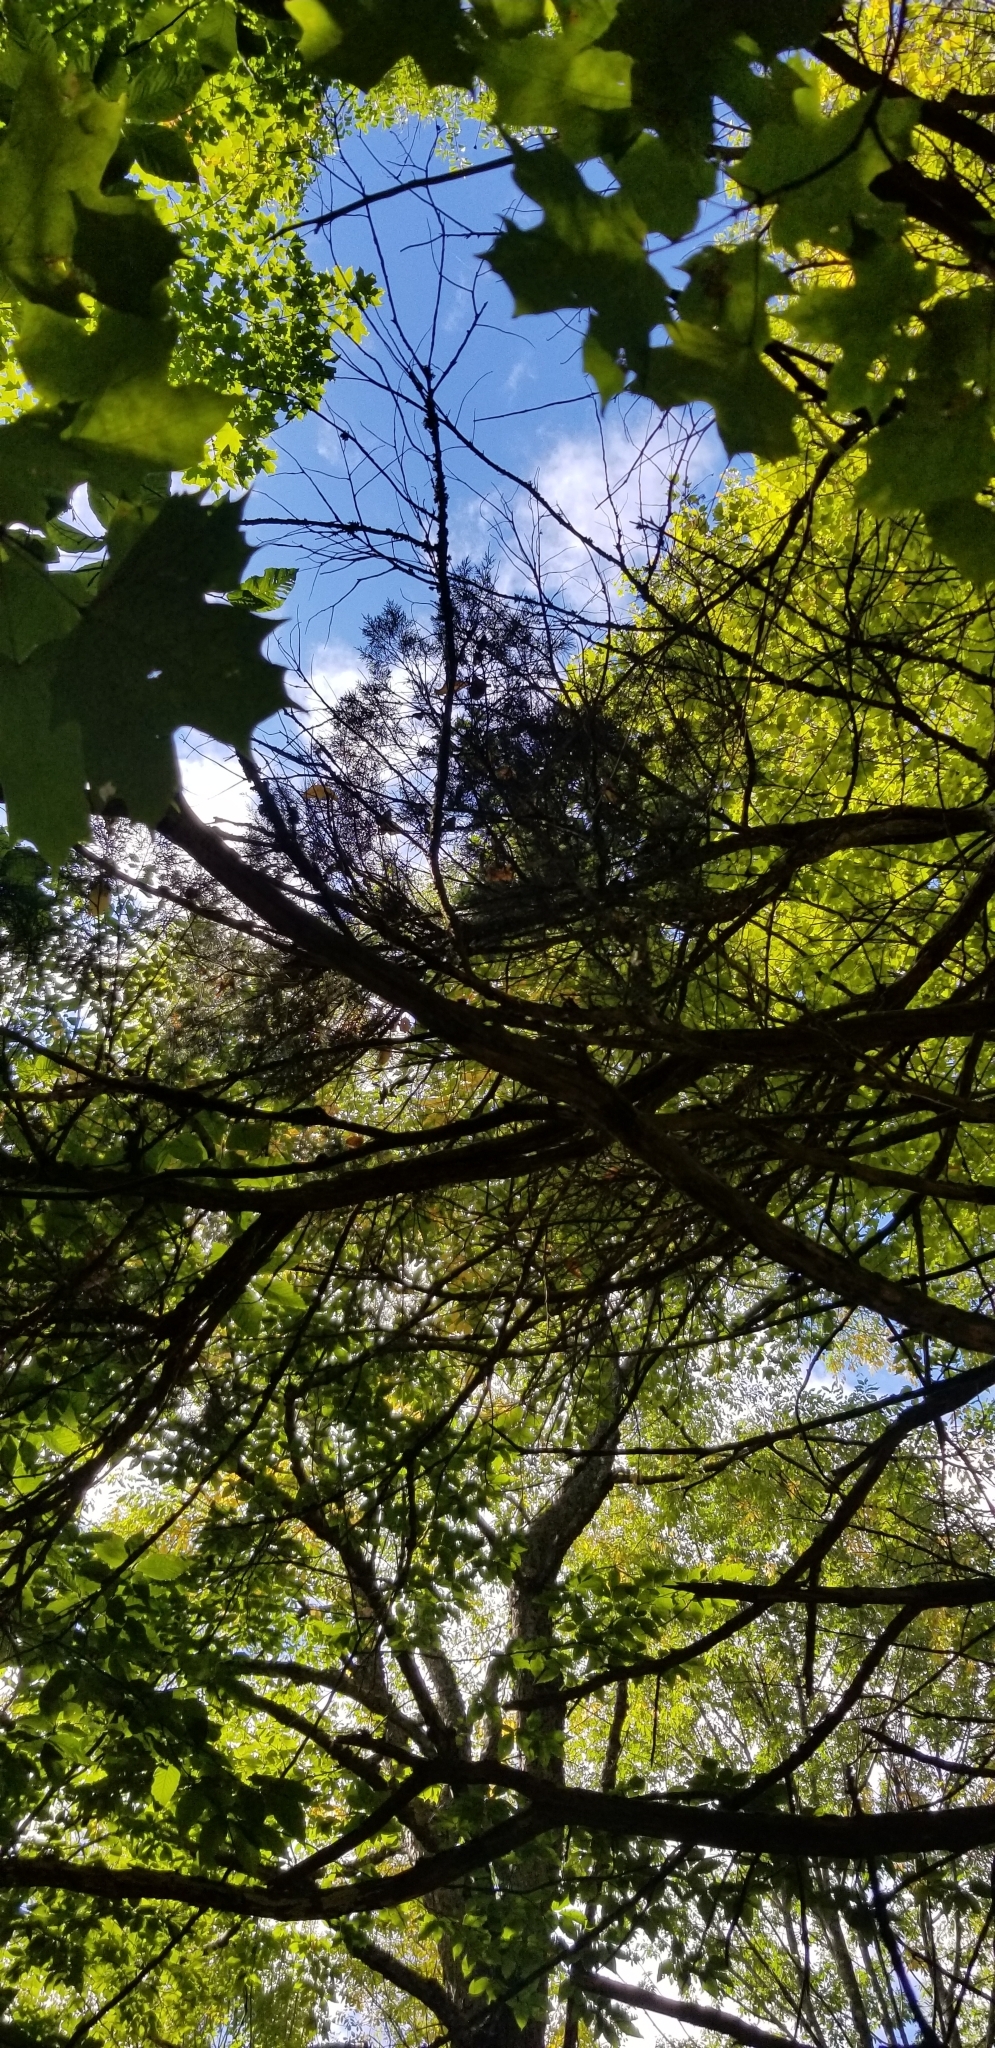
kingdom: Plantae
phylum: Tracheophyta
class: Pinopsida
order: Pinales
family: Cupressaceae
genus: Juniperus
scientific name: Juniperus virginiana
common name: Red juniper
